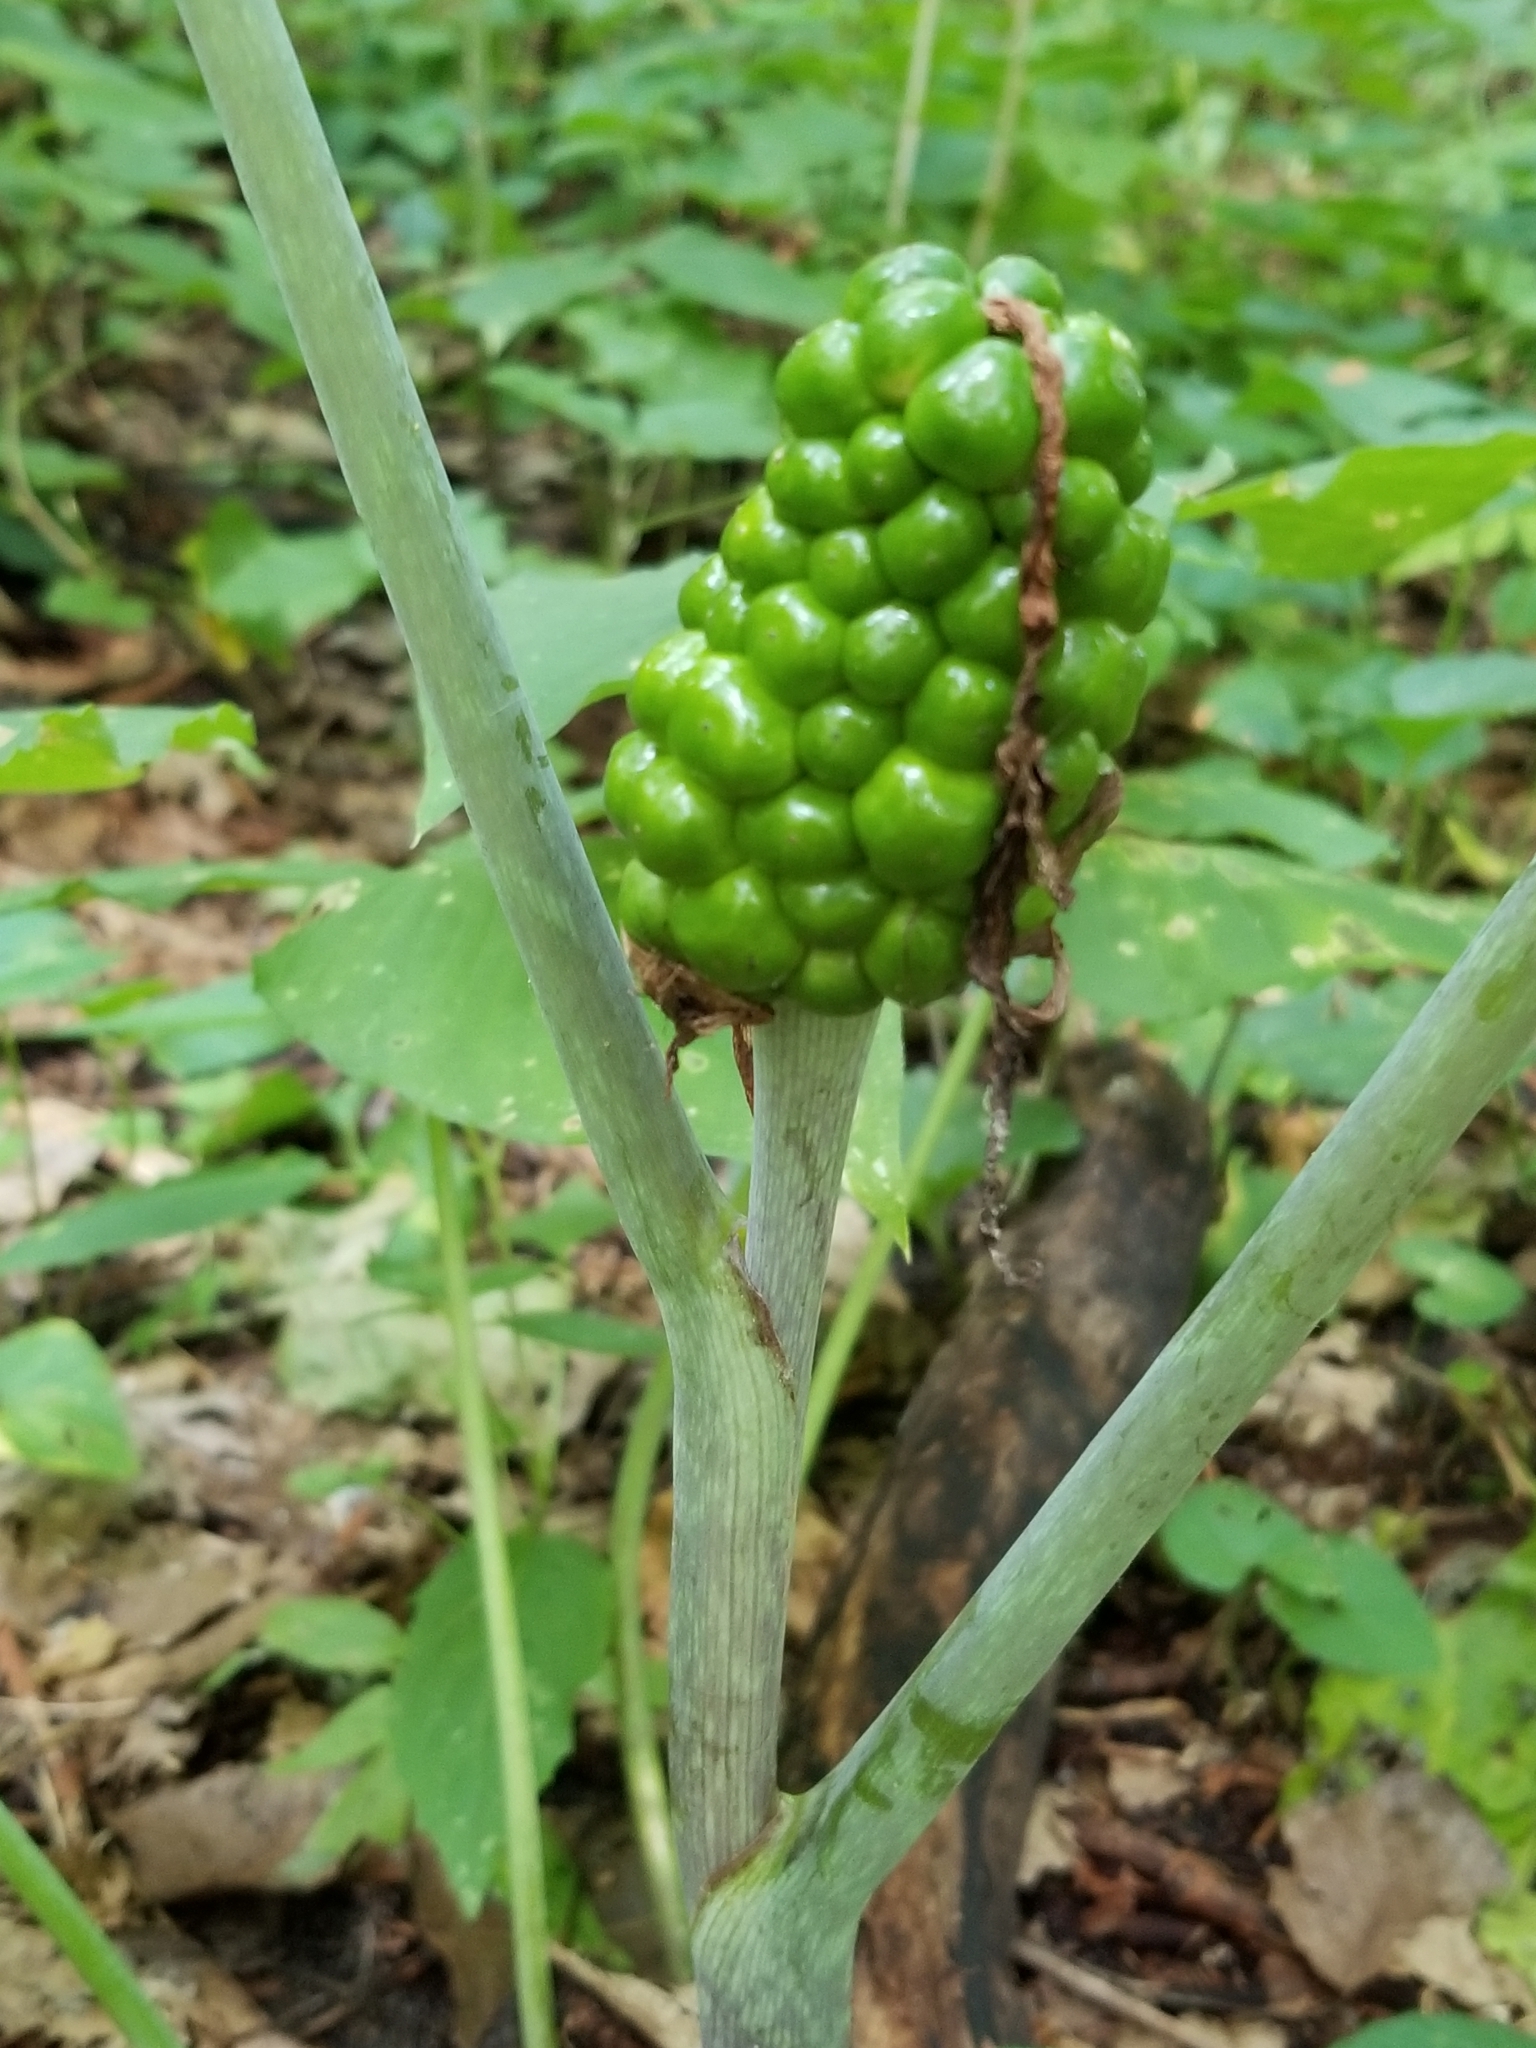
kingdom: Plantae
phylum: Tracheophyta
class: Liliopsida
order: Alismatales
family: Araceae
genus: Arisaema
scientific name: Arisaema triphyllum
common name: Jack-in-the-pulpit
